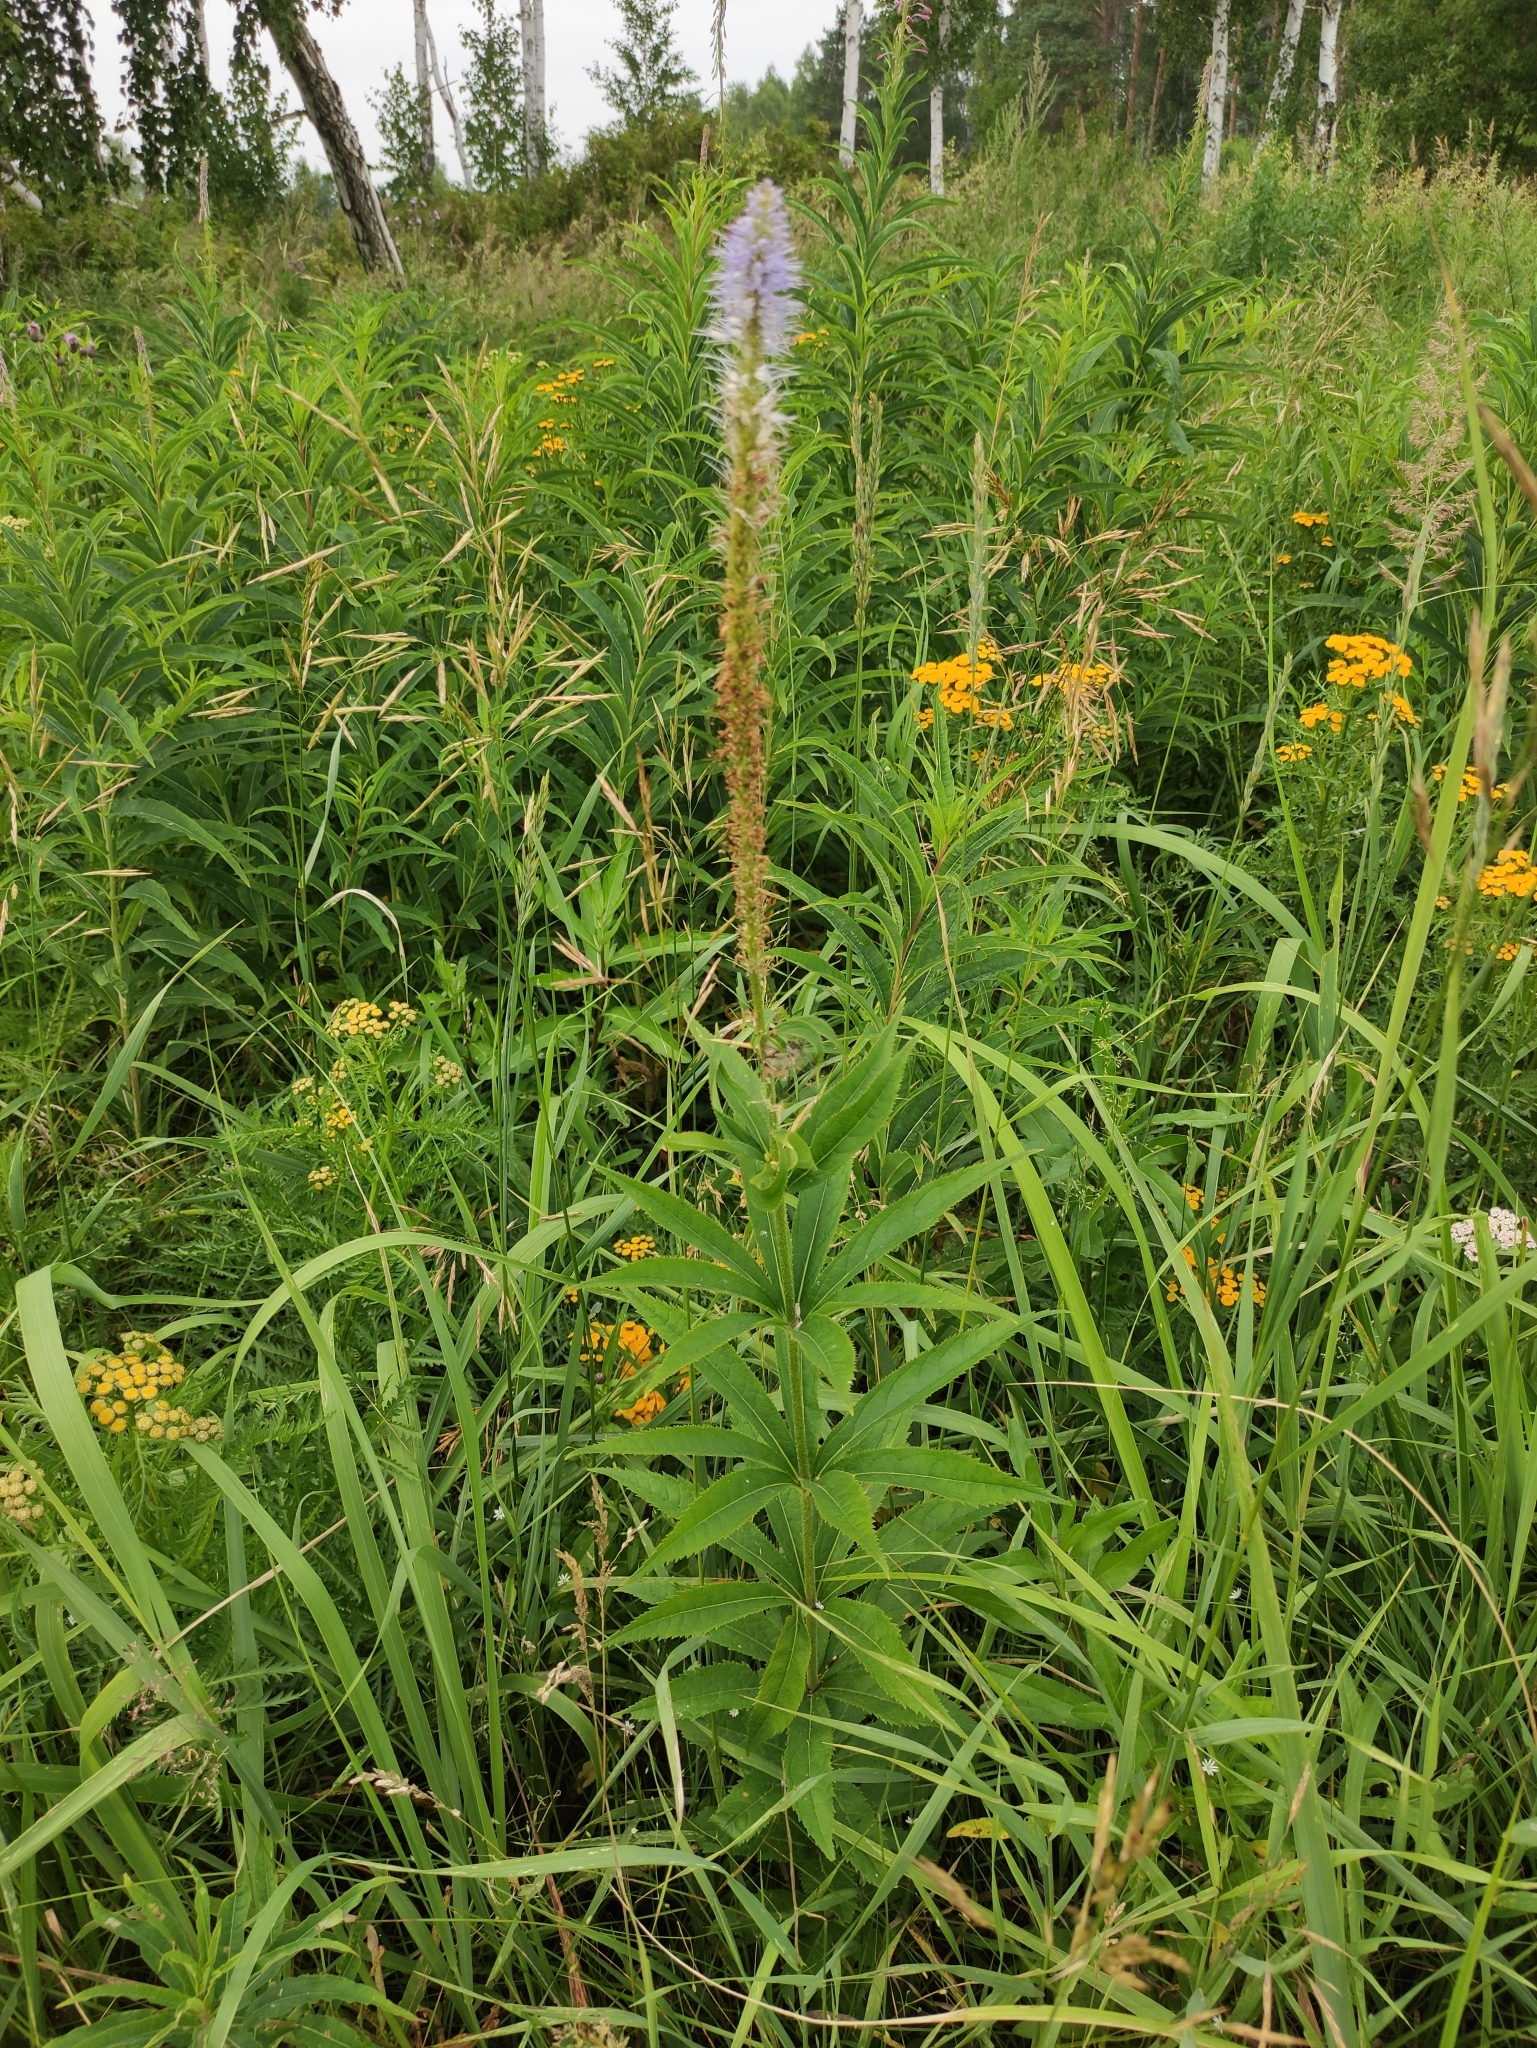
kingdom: Plantae
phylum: Tracheophyta
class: Magnoliopsida
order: Lamiales
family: Plantaginaceae
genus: Veronicastrum
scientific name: Veronicastrum sibiricum
